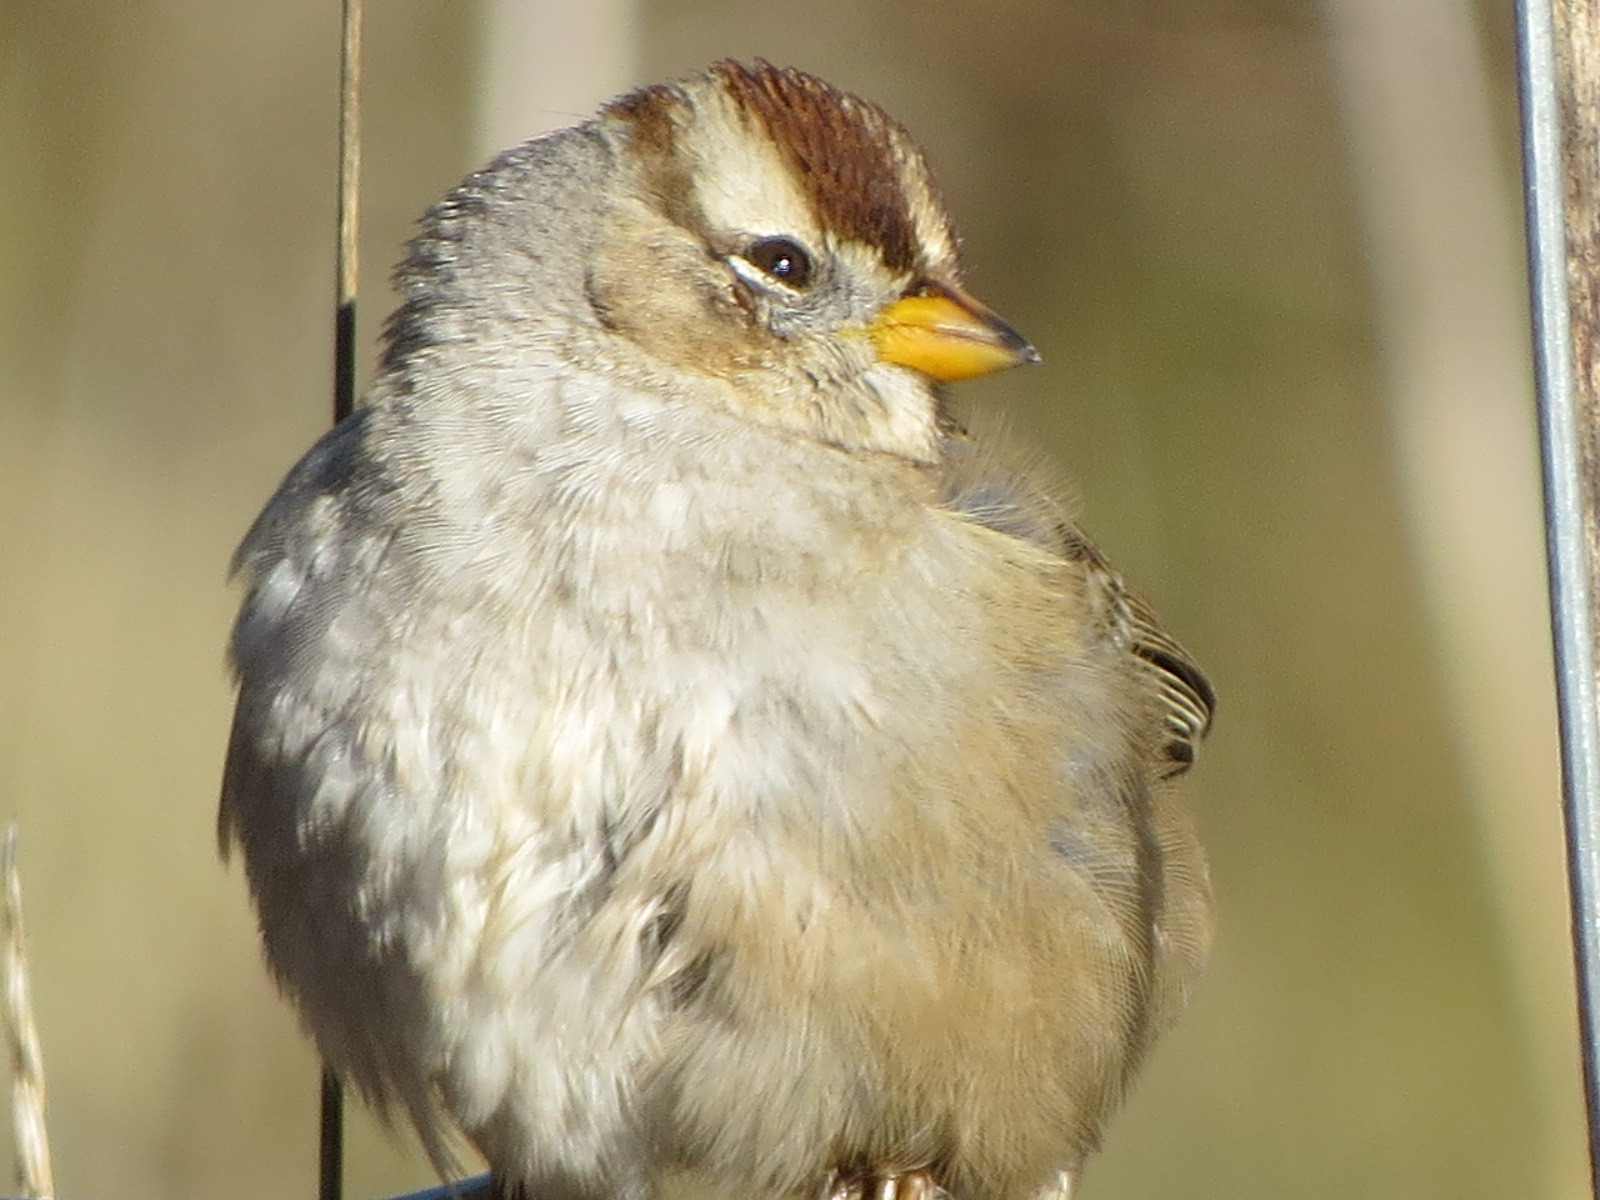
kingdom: Animalia
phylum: Chordata
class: Aves
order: Passeriformes
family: Passerellidae
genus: Zonotrichia
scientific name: Zonotrichia leucophrys
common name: White-crowned sparrow
